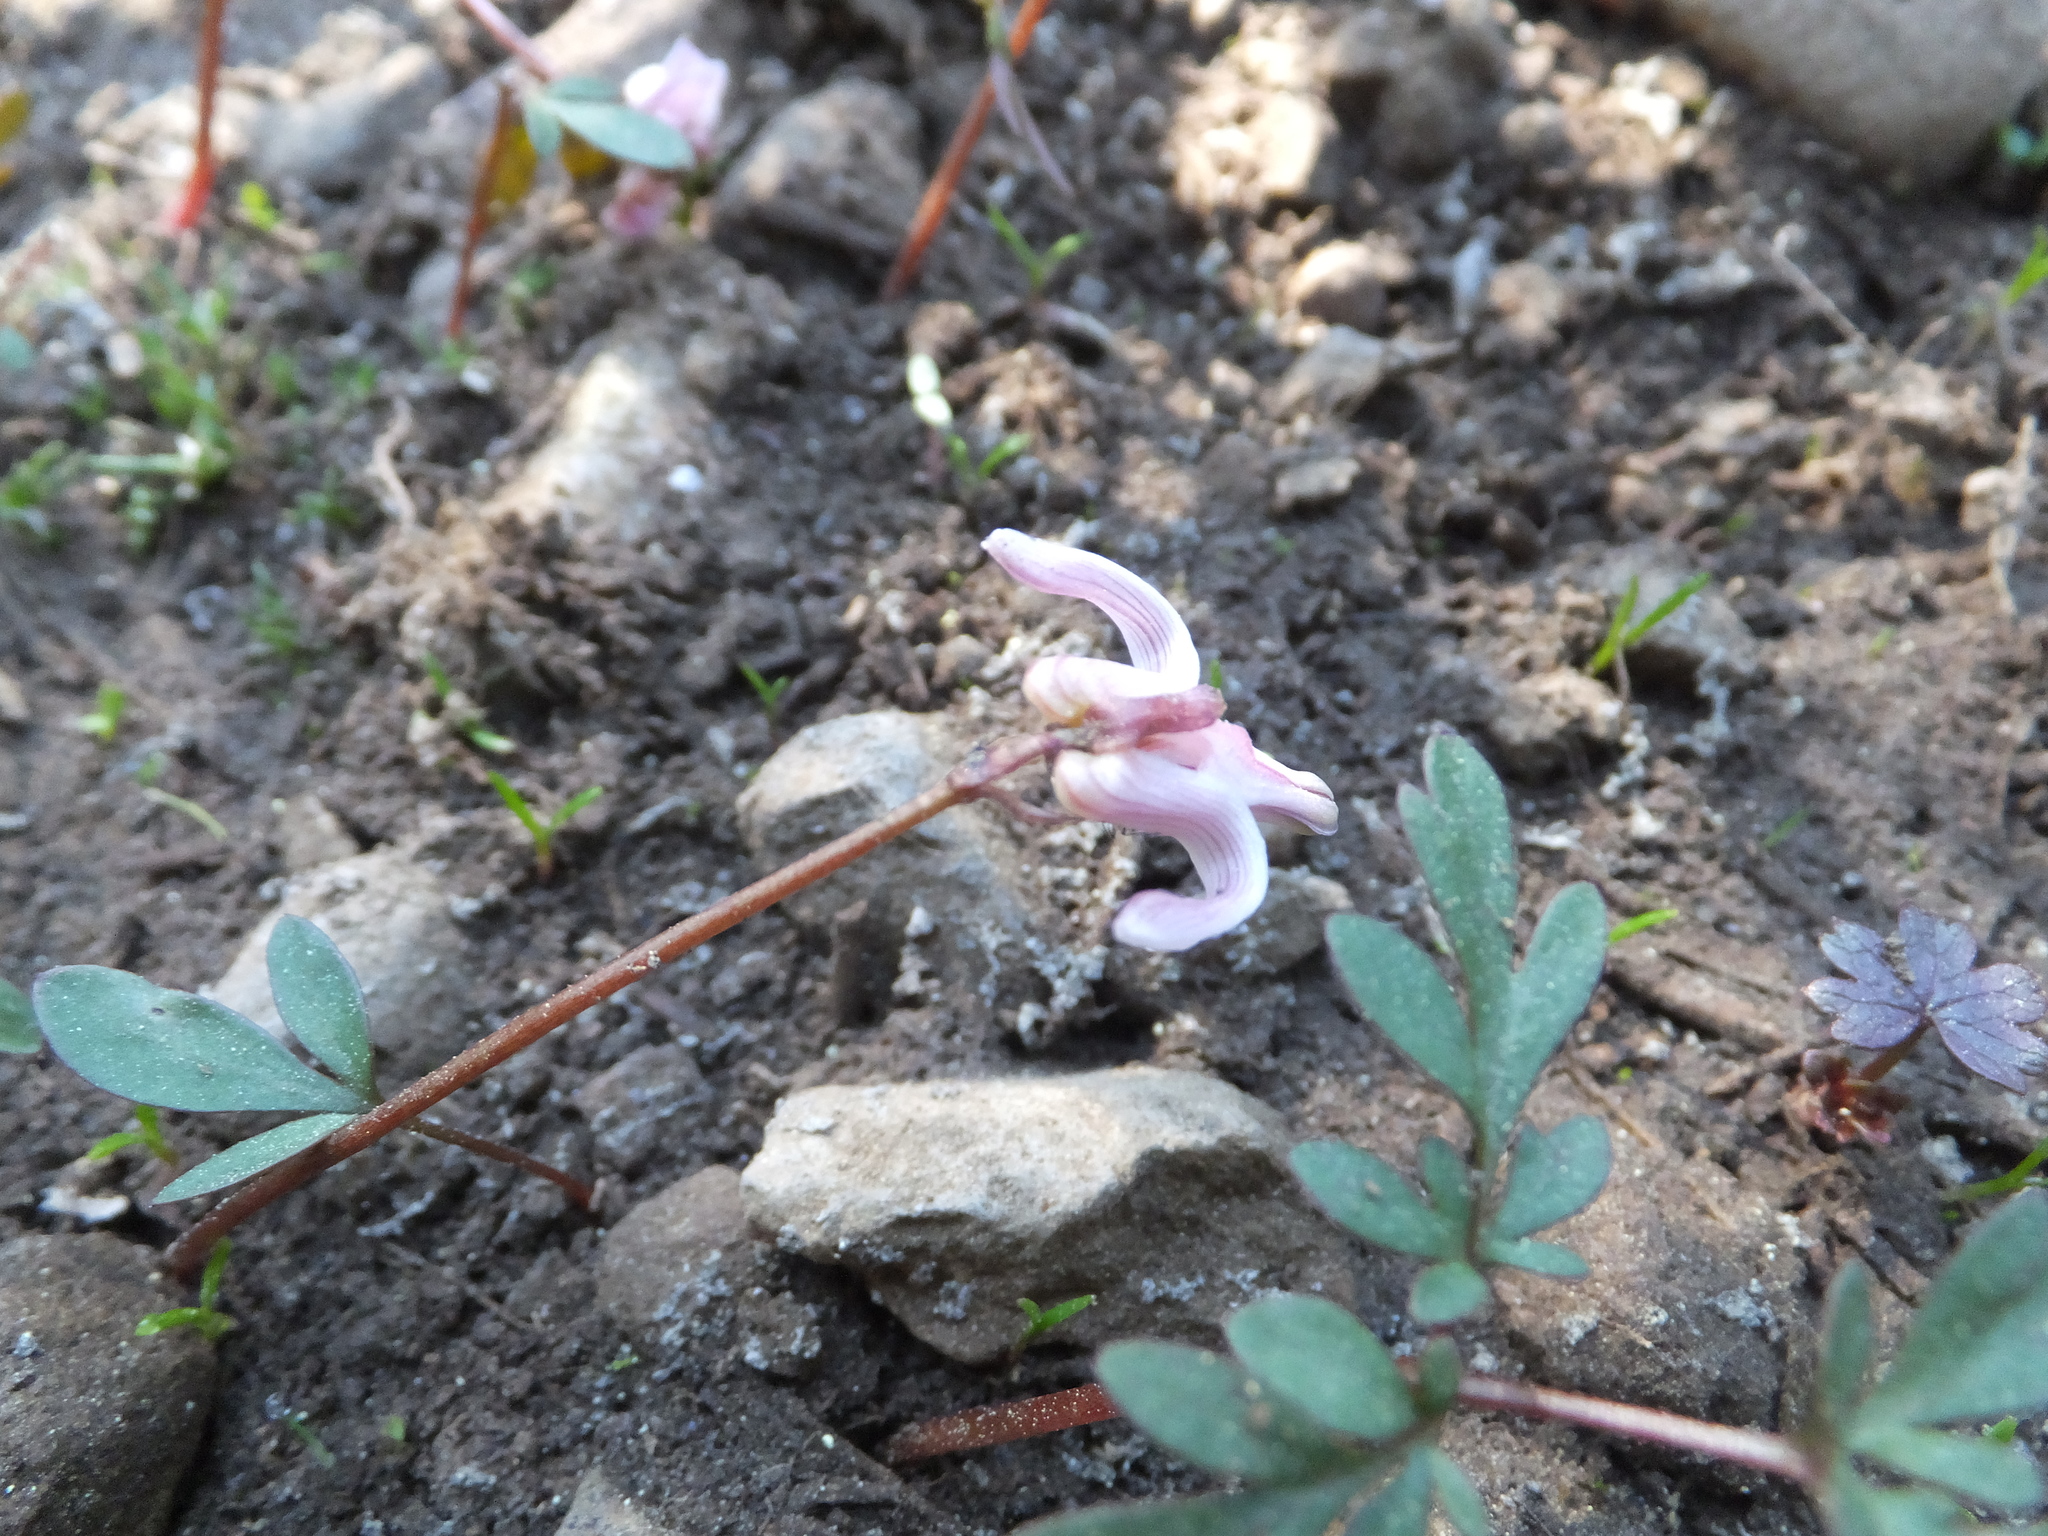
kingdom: Plantae
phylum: Tracheophyta
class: Magnoliopsida
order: Ranunculales
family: Papaveraceae
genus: Dicentra
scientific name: Dicentra uniflora
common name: Steer's-head
